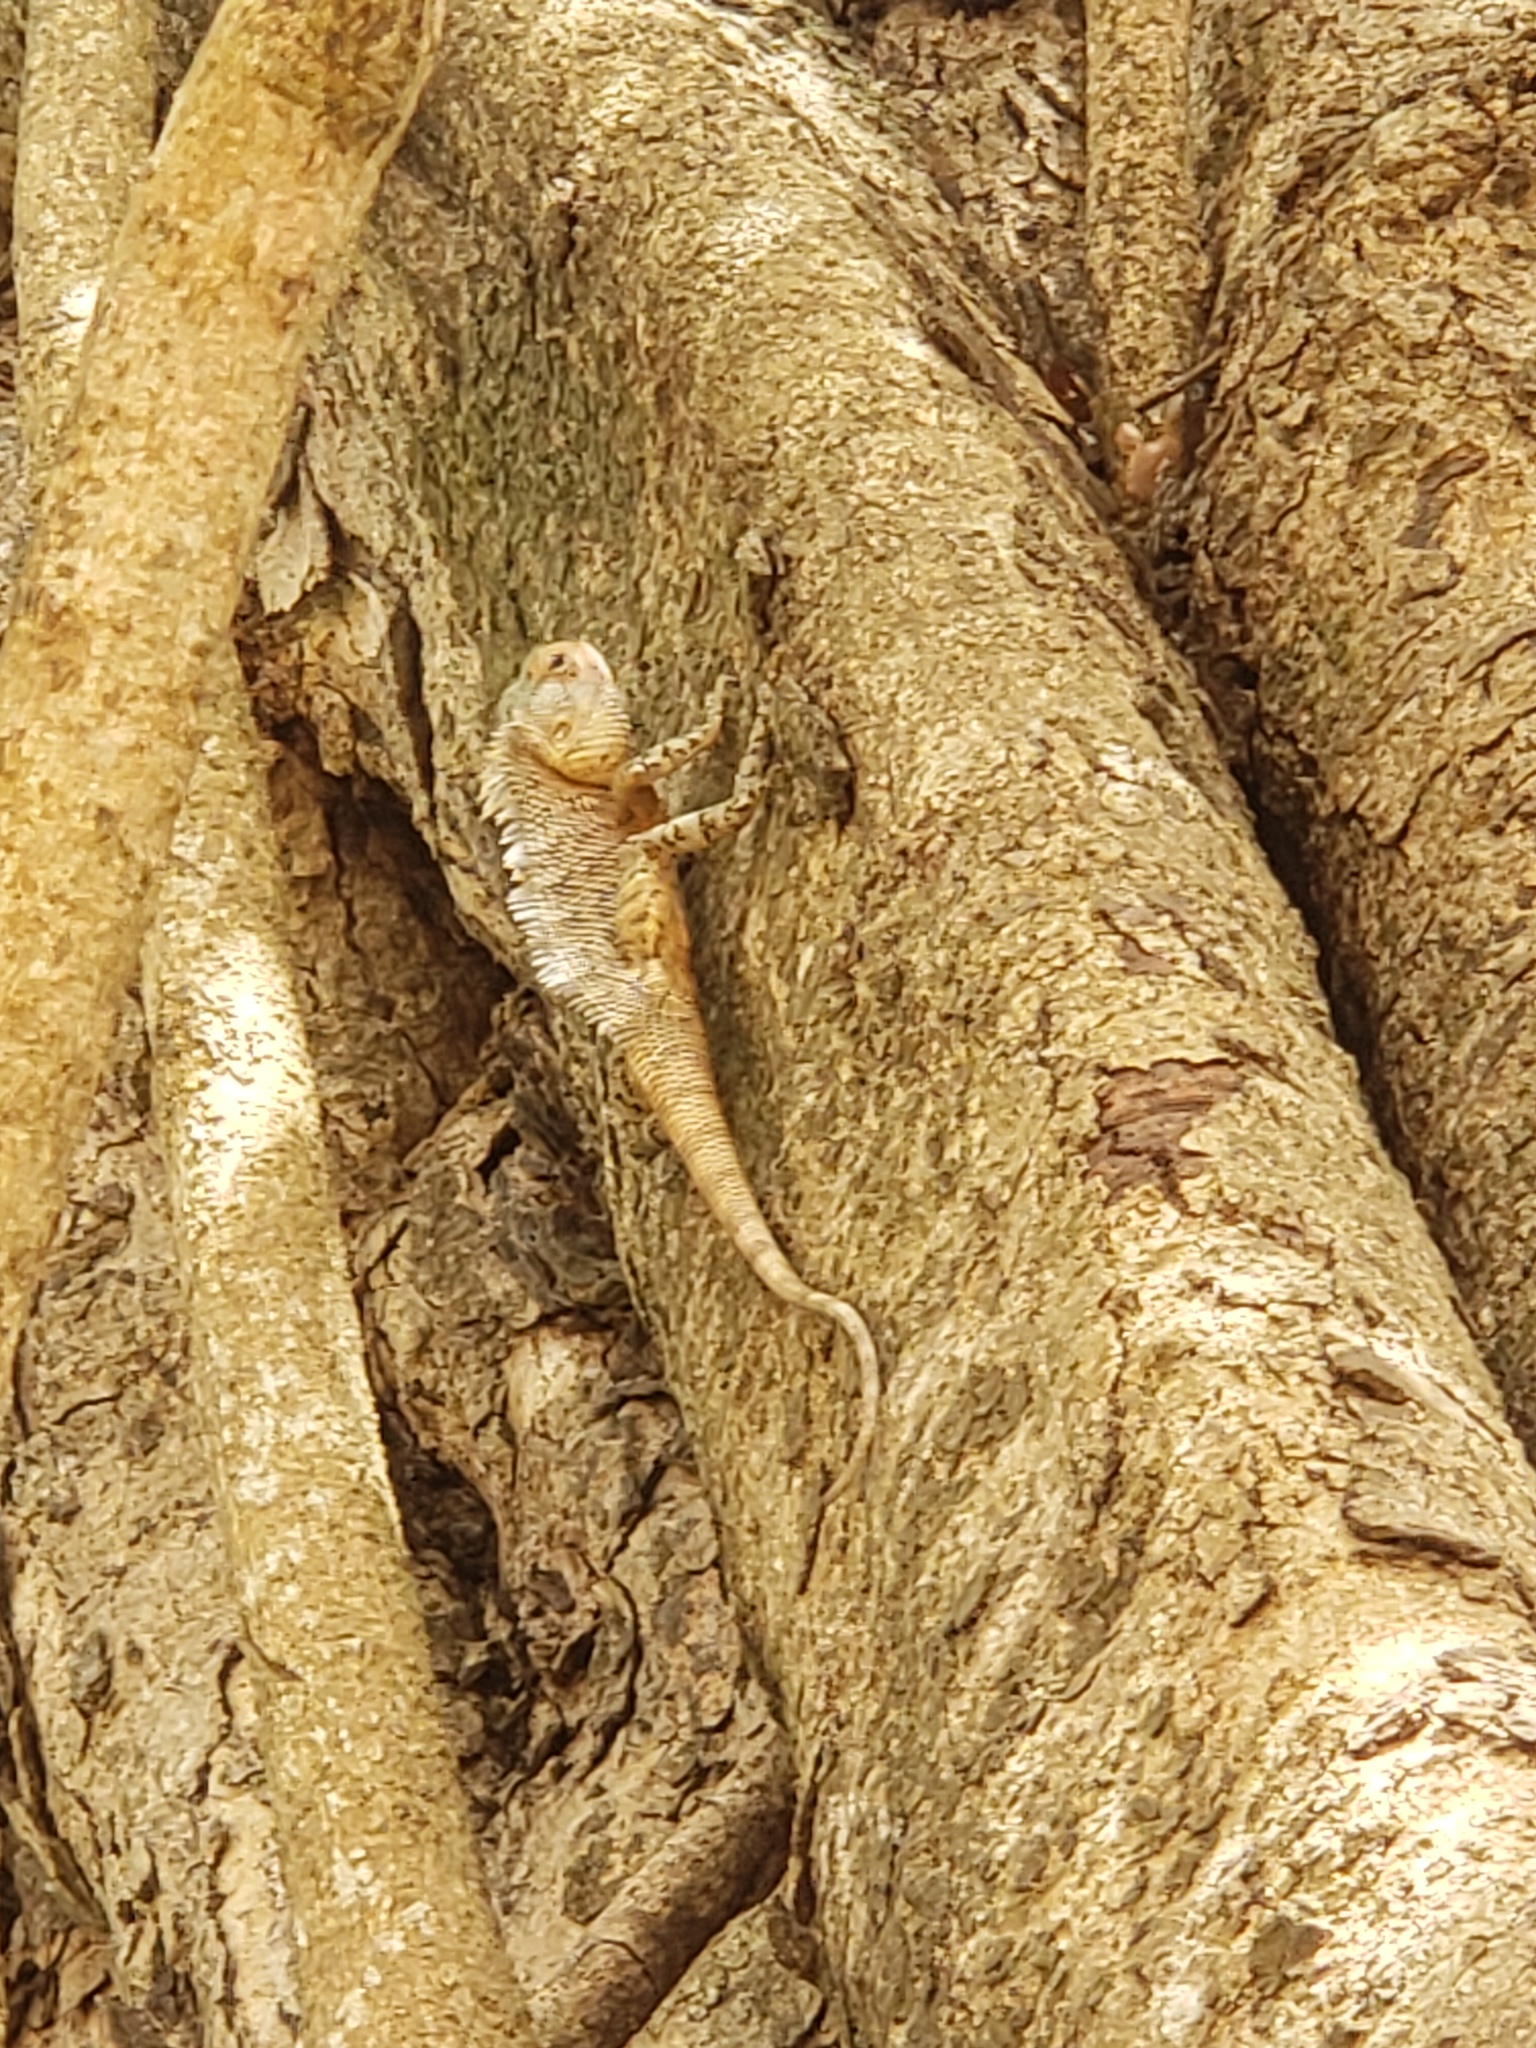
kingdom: Animalia
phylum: Chordata
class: Squamata
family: Agamidae
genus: Calotes
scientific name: Calotes versicolor
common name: Oriental garden lizard
